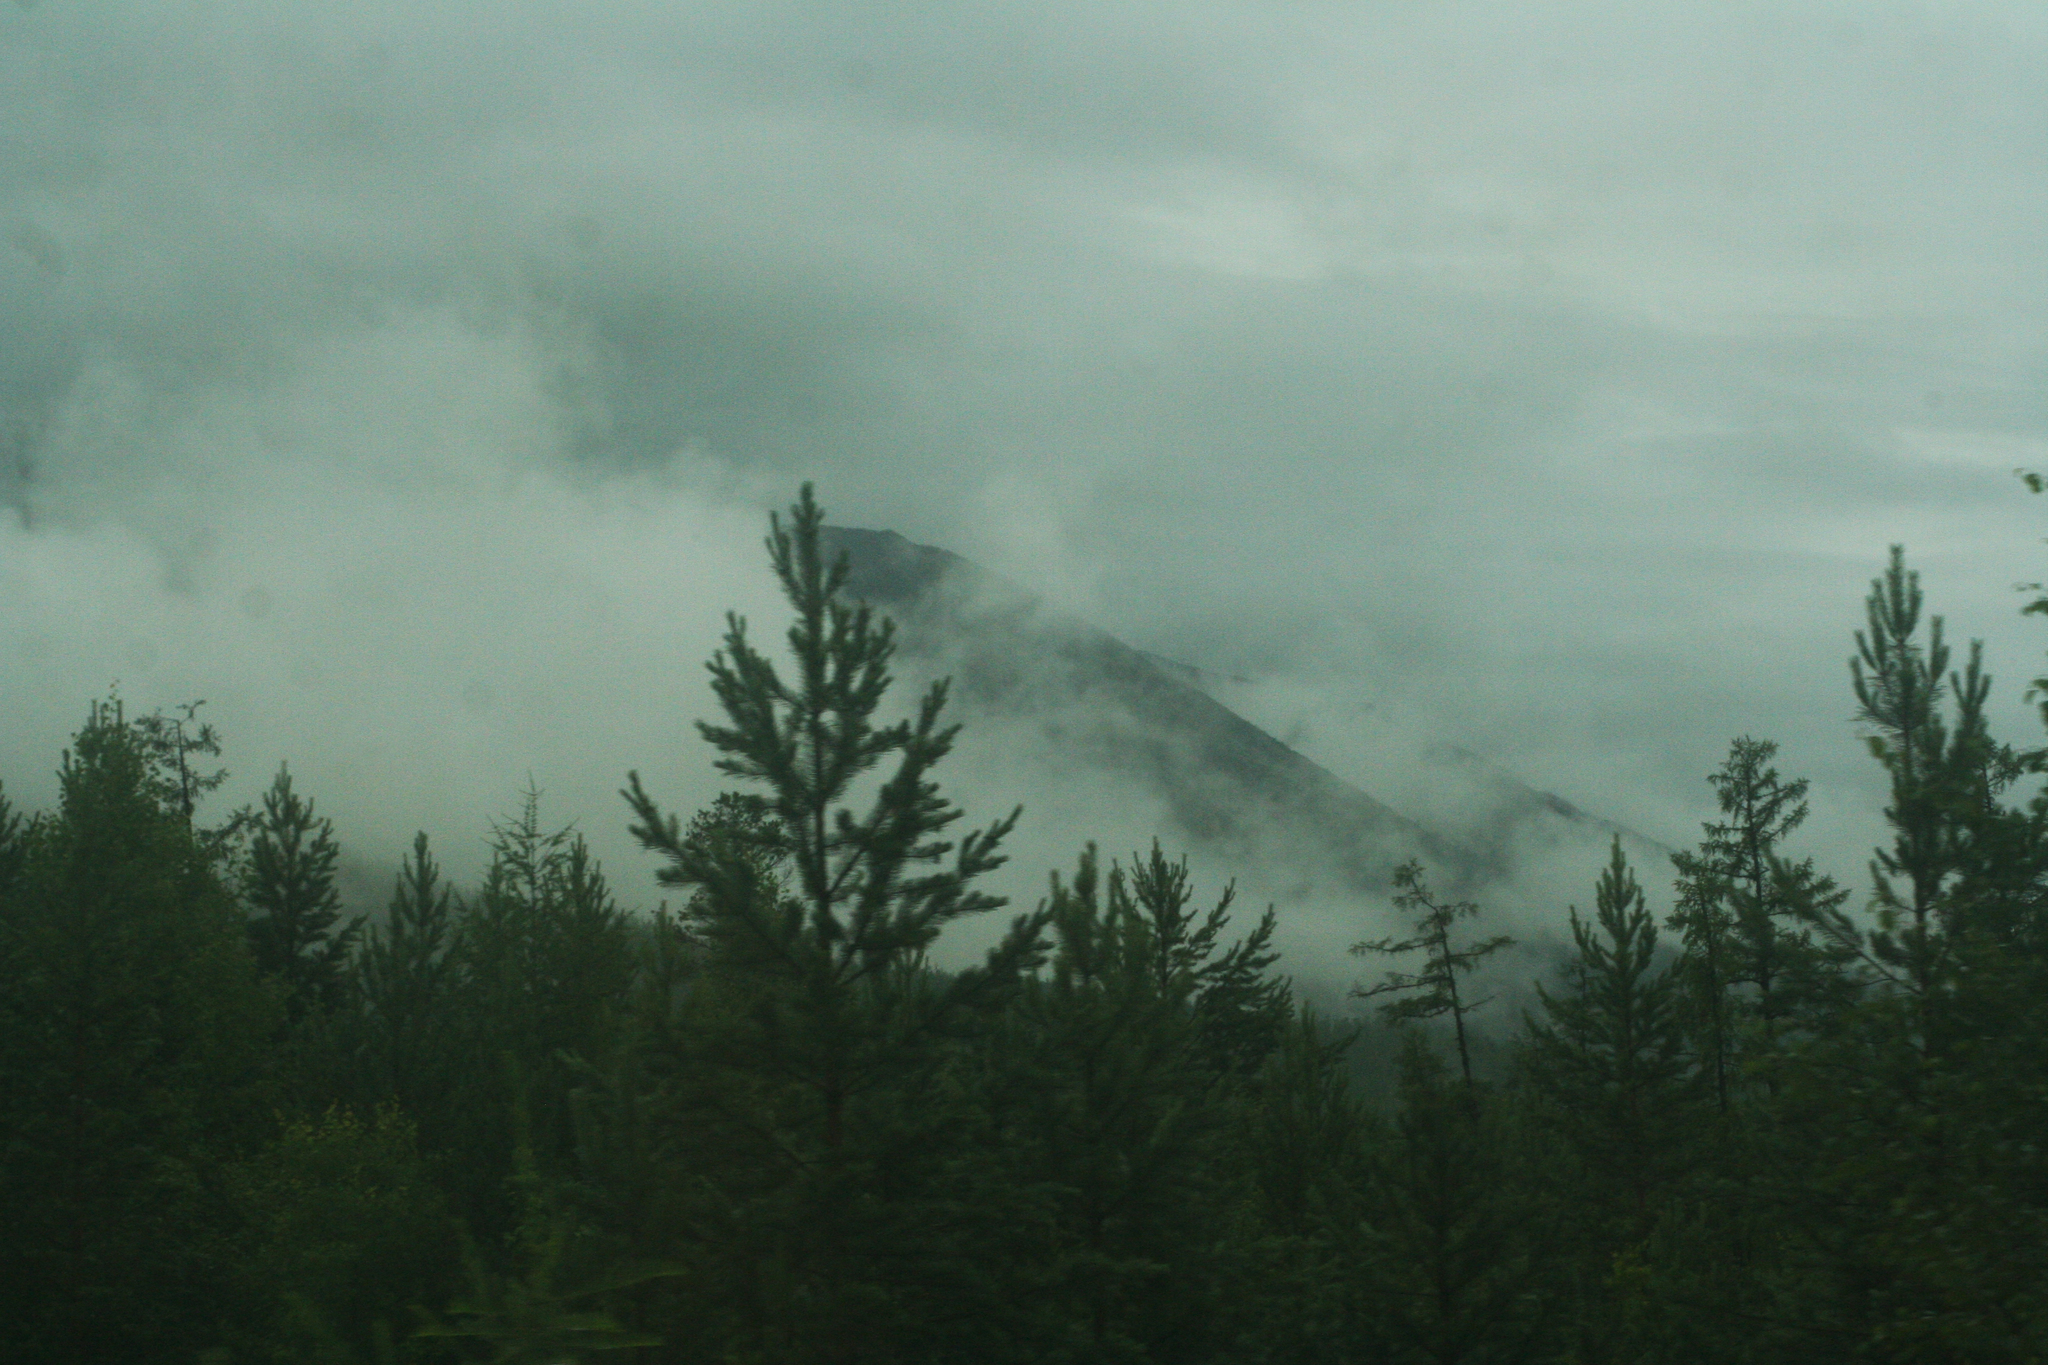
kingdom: Plantae
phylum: Tracheophyta
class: Pinopsida
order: Pinales
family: Pinaceae
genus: Pinus
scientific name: Pinus sylvestris
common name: Scots pine
